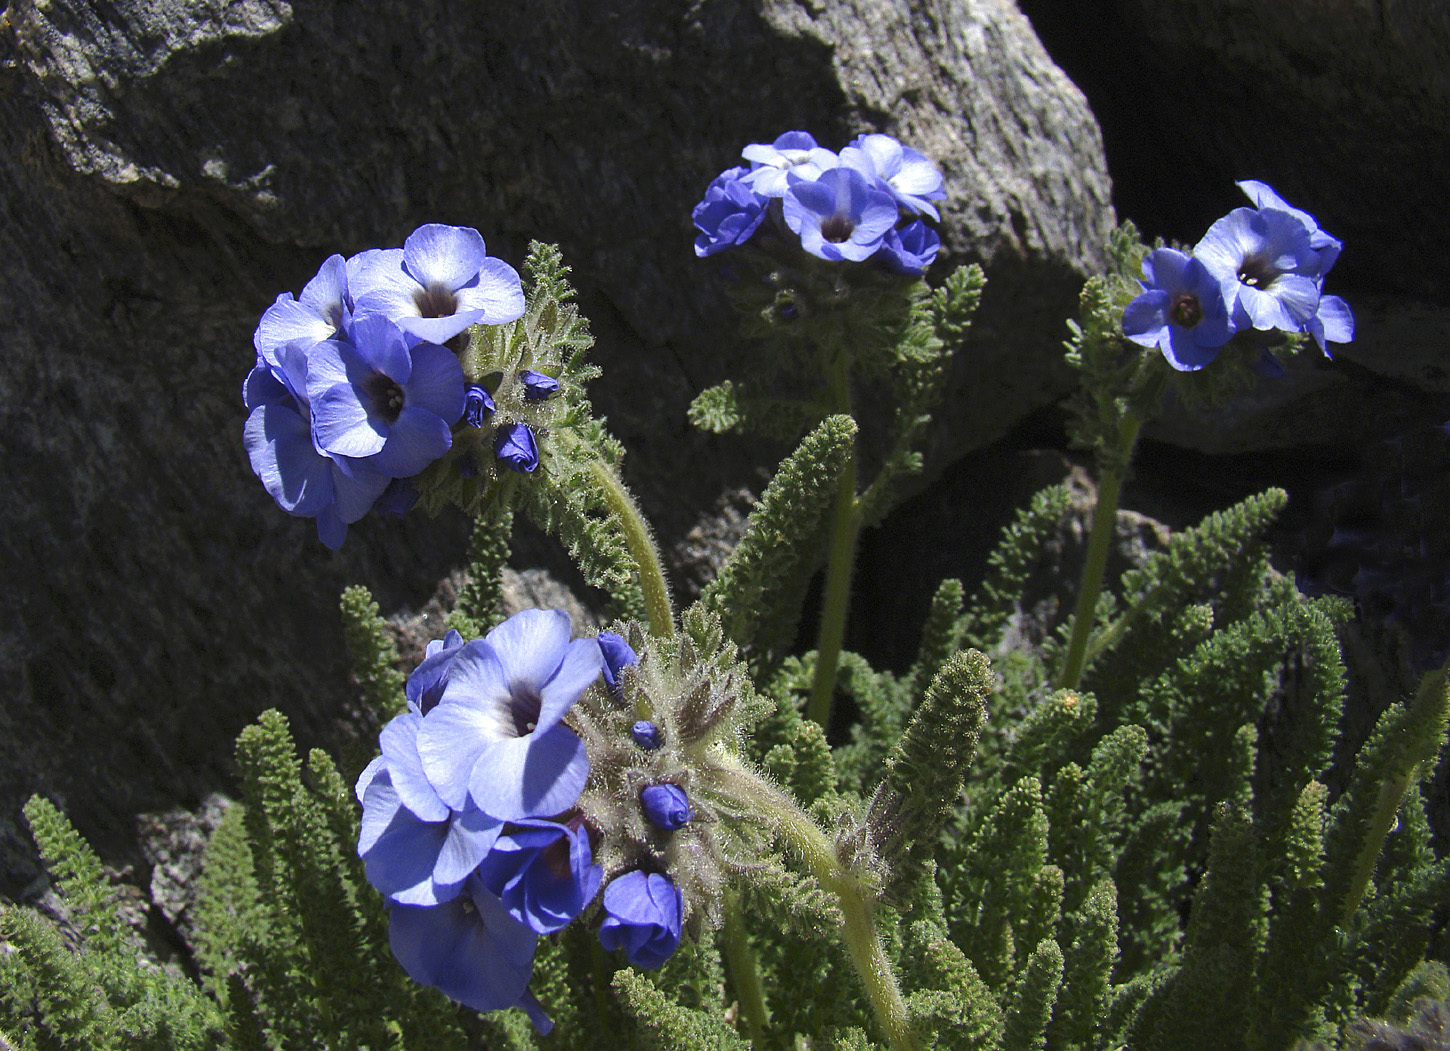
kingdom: Plantae
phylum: Tracheophyta
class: Magnoliopsida
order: Ericales
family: Polemoniaceae
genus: Polemonium
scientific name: Polemonium eximium
